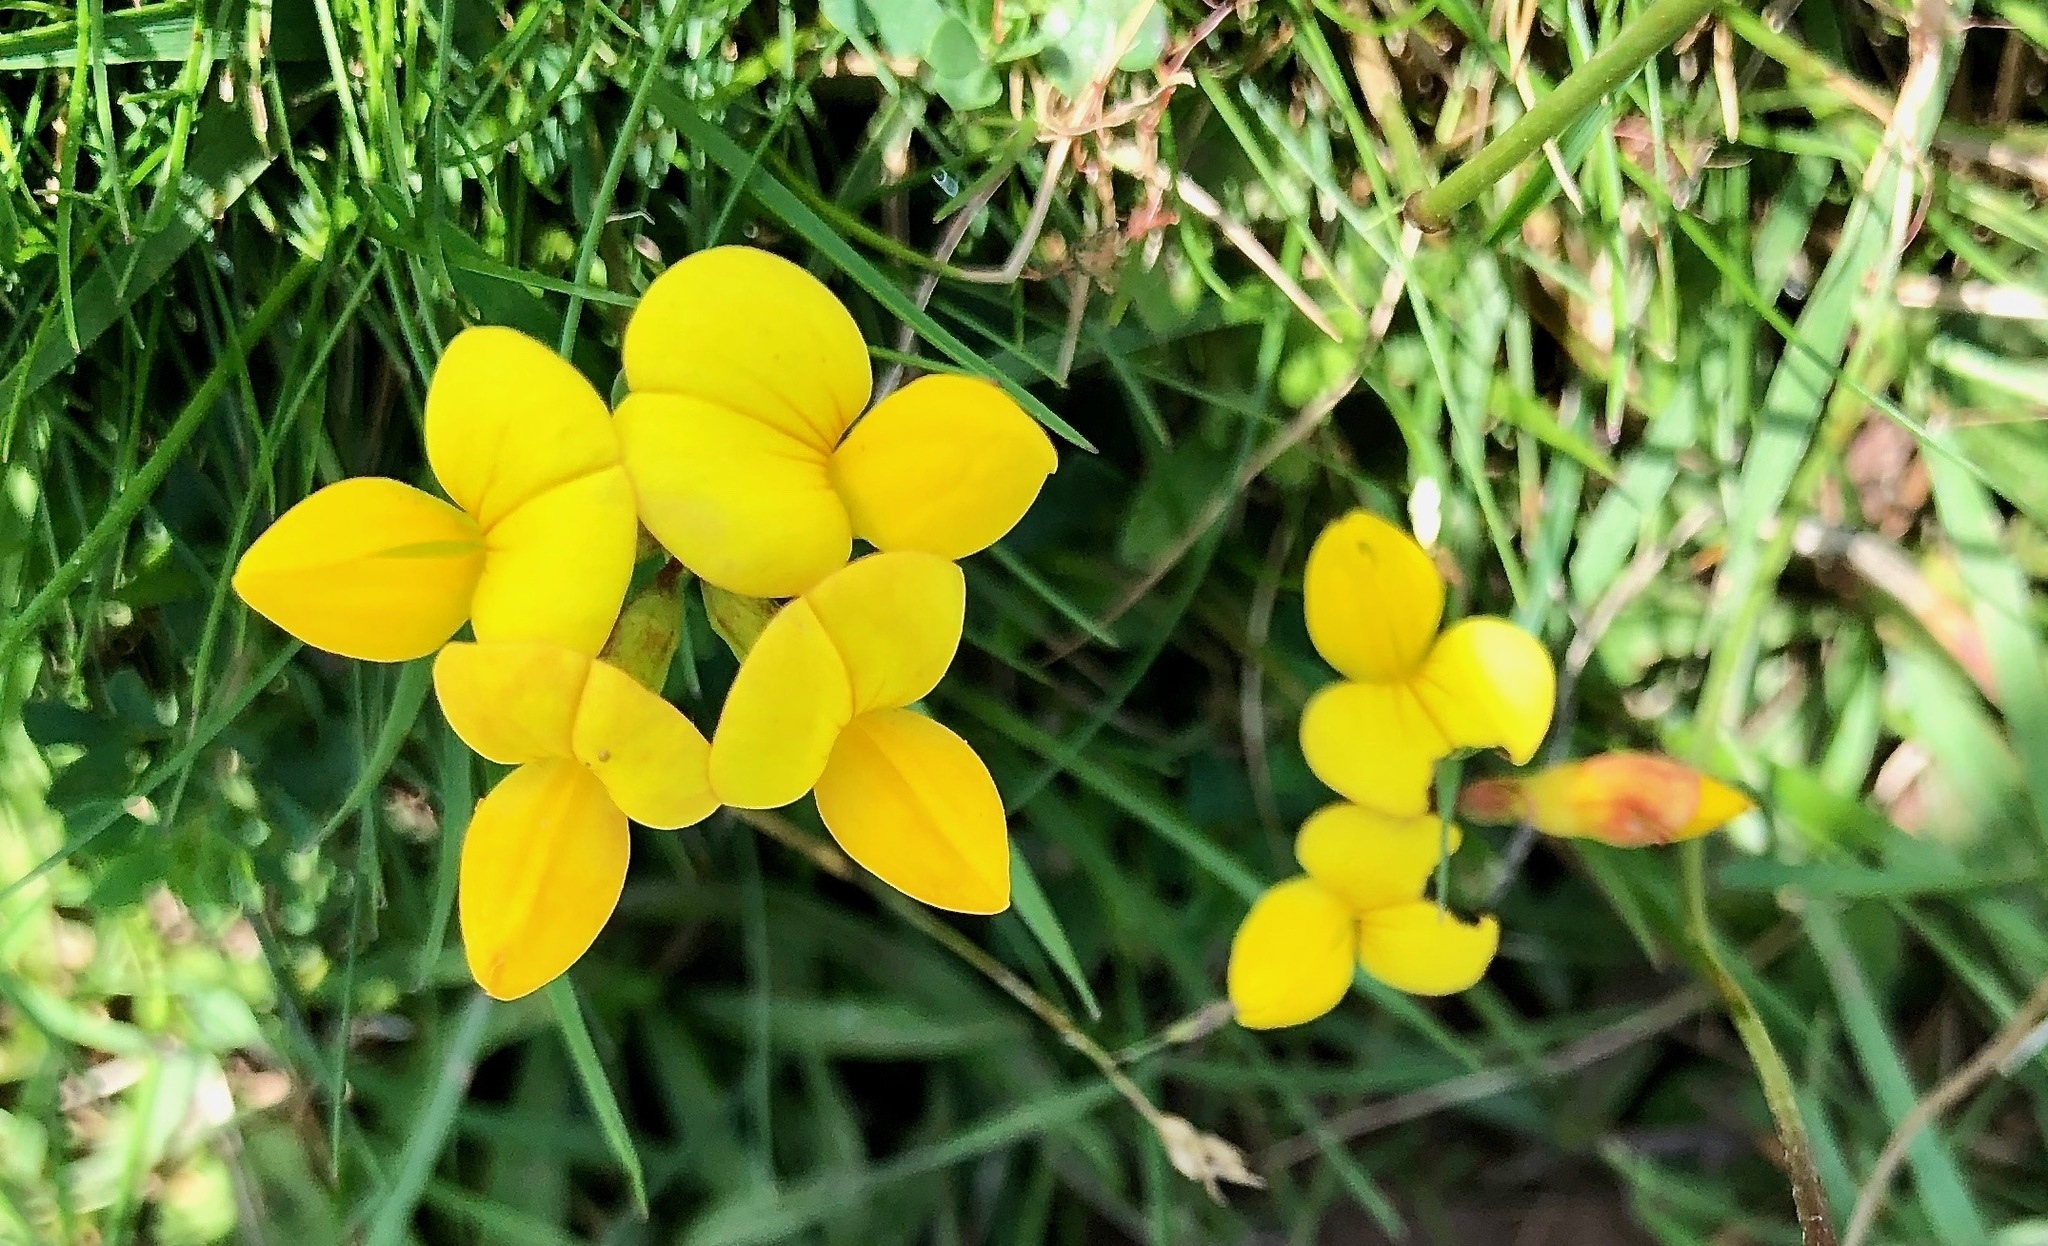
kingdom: Plantae
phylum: Tracheophyta
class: Magnoliopsida
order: Fabales
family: Fabaceae
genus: Lotus
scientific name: Lotus corniculatus
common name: Common bird's-foot-trefoil
